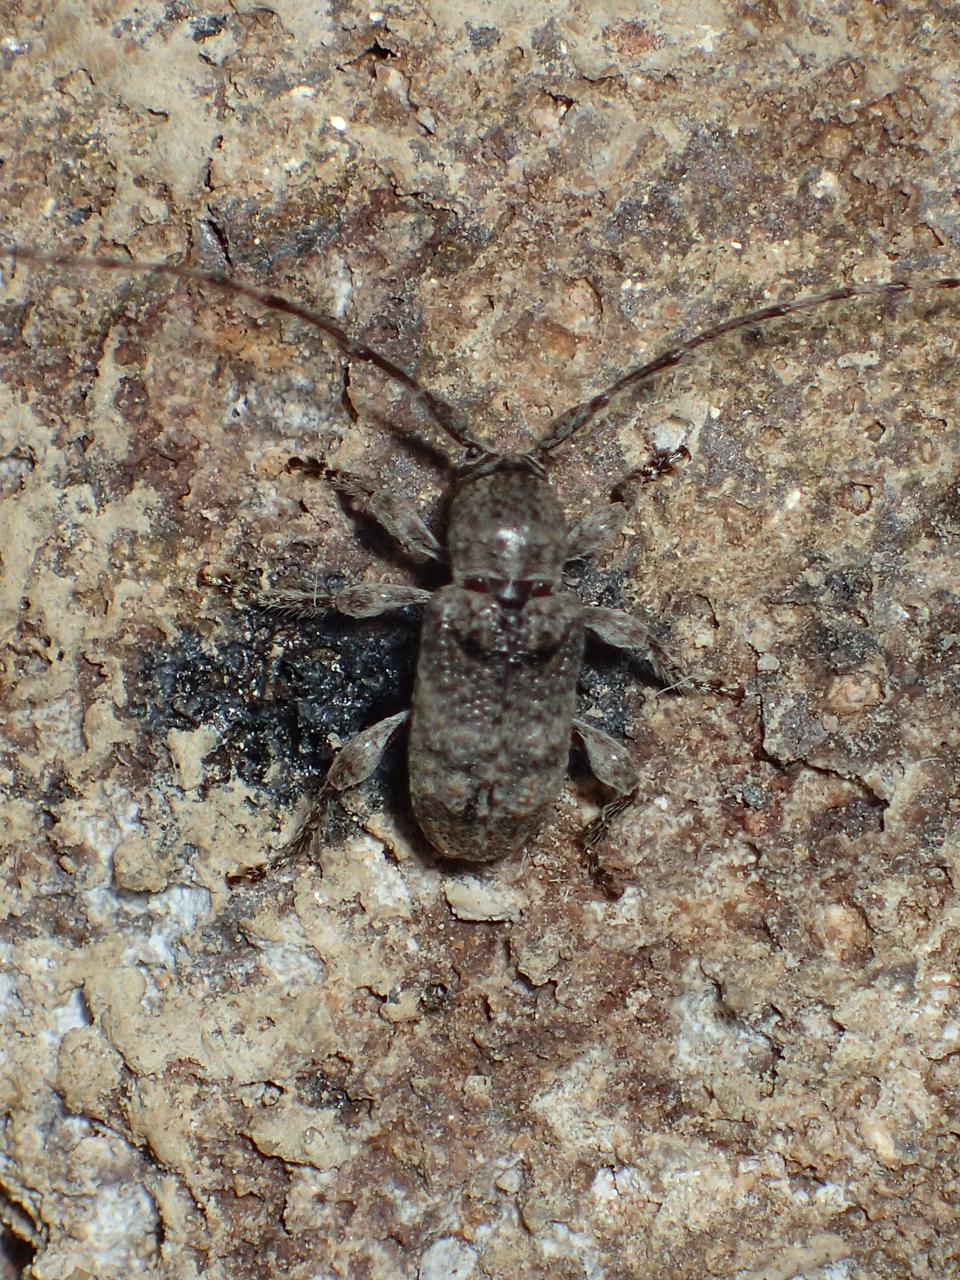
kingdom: Animalia
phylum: Arthropoda
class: Insecta
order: Coleoptera
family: Cerambycidae
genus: Ecyrus
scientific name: Ecyrus dasycerus
